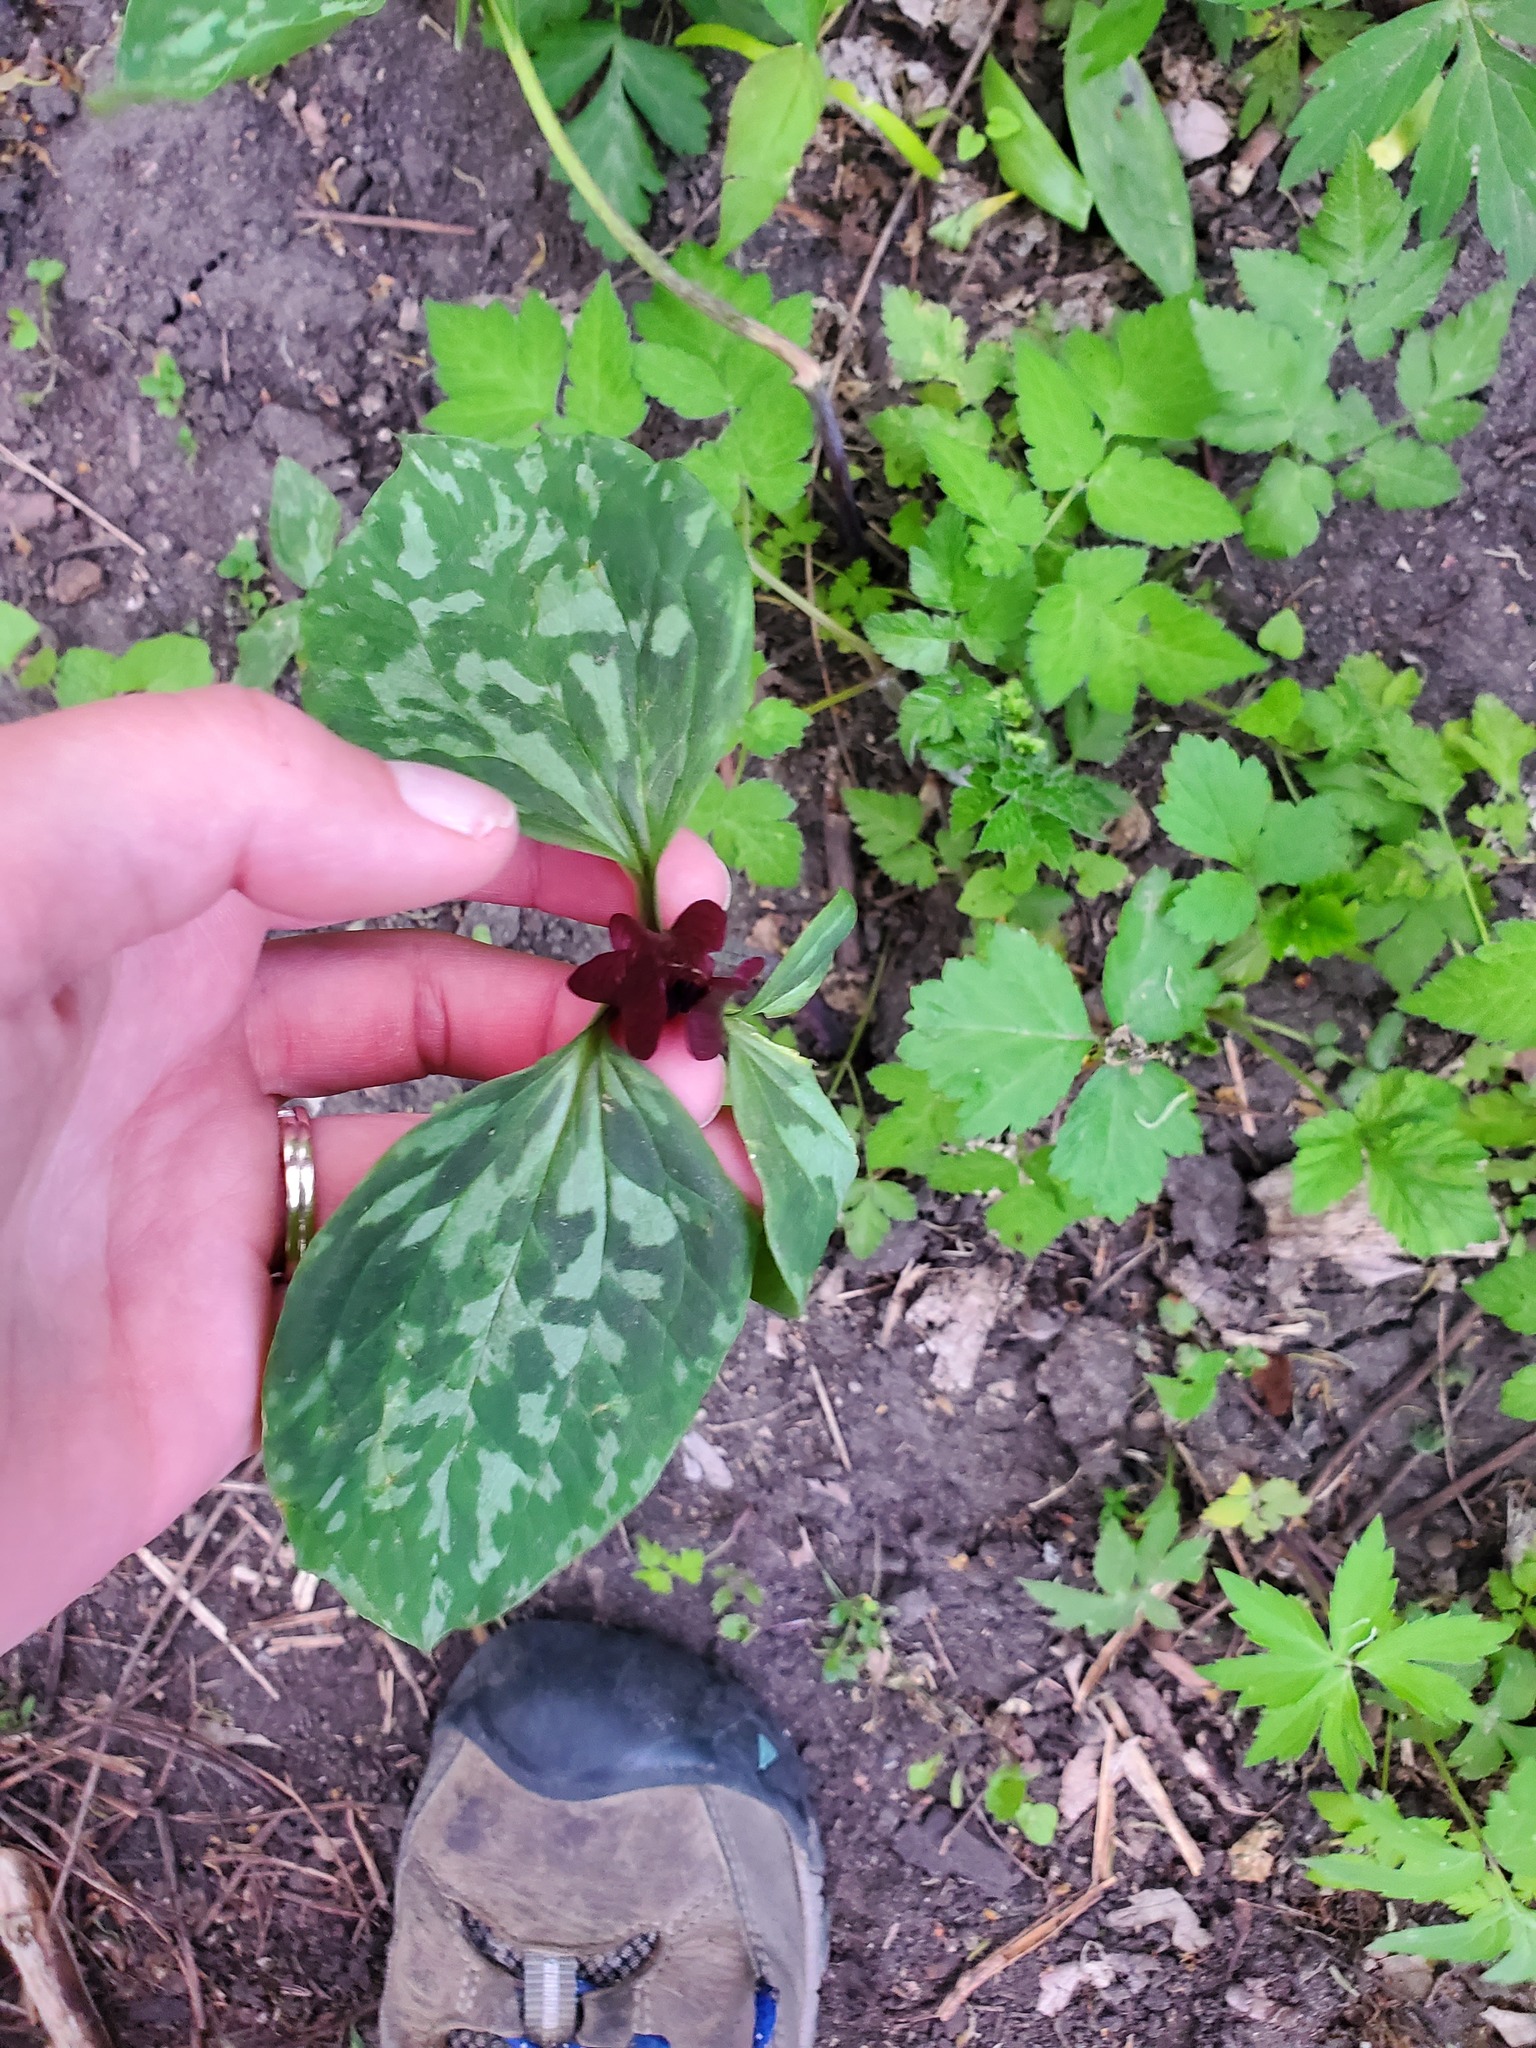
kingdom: Plantae
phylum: Tracheophyta
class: Liliopsida
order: Liliales
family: Melanthiaceae
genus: Trillium
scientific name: Trillium recurvatum
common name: Bloody butcher
